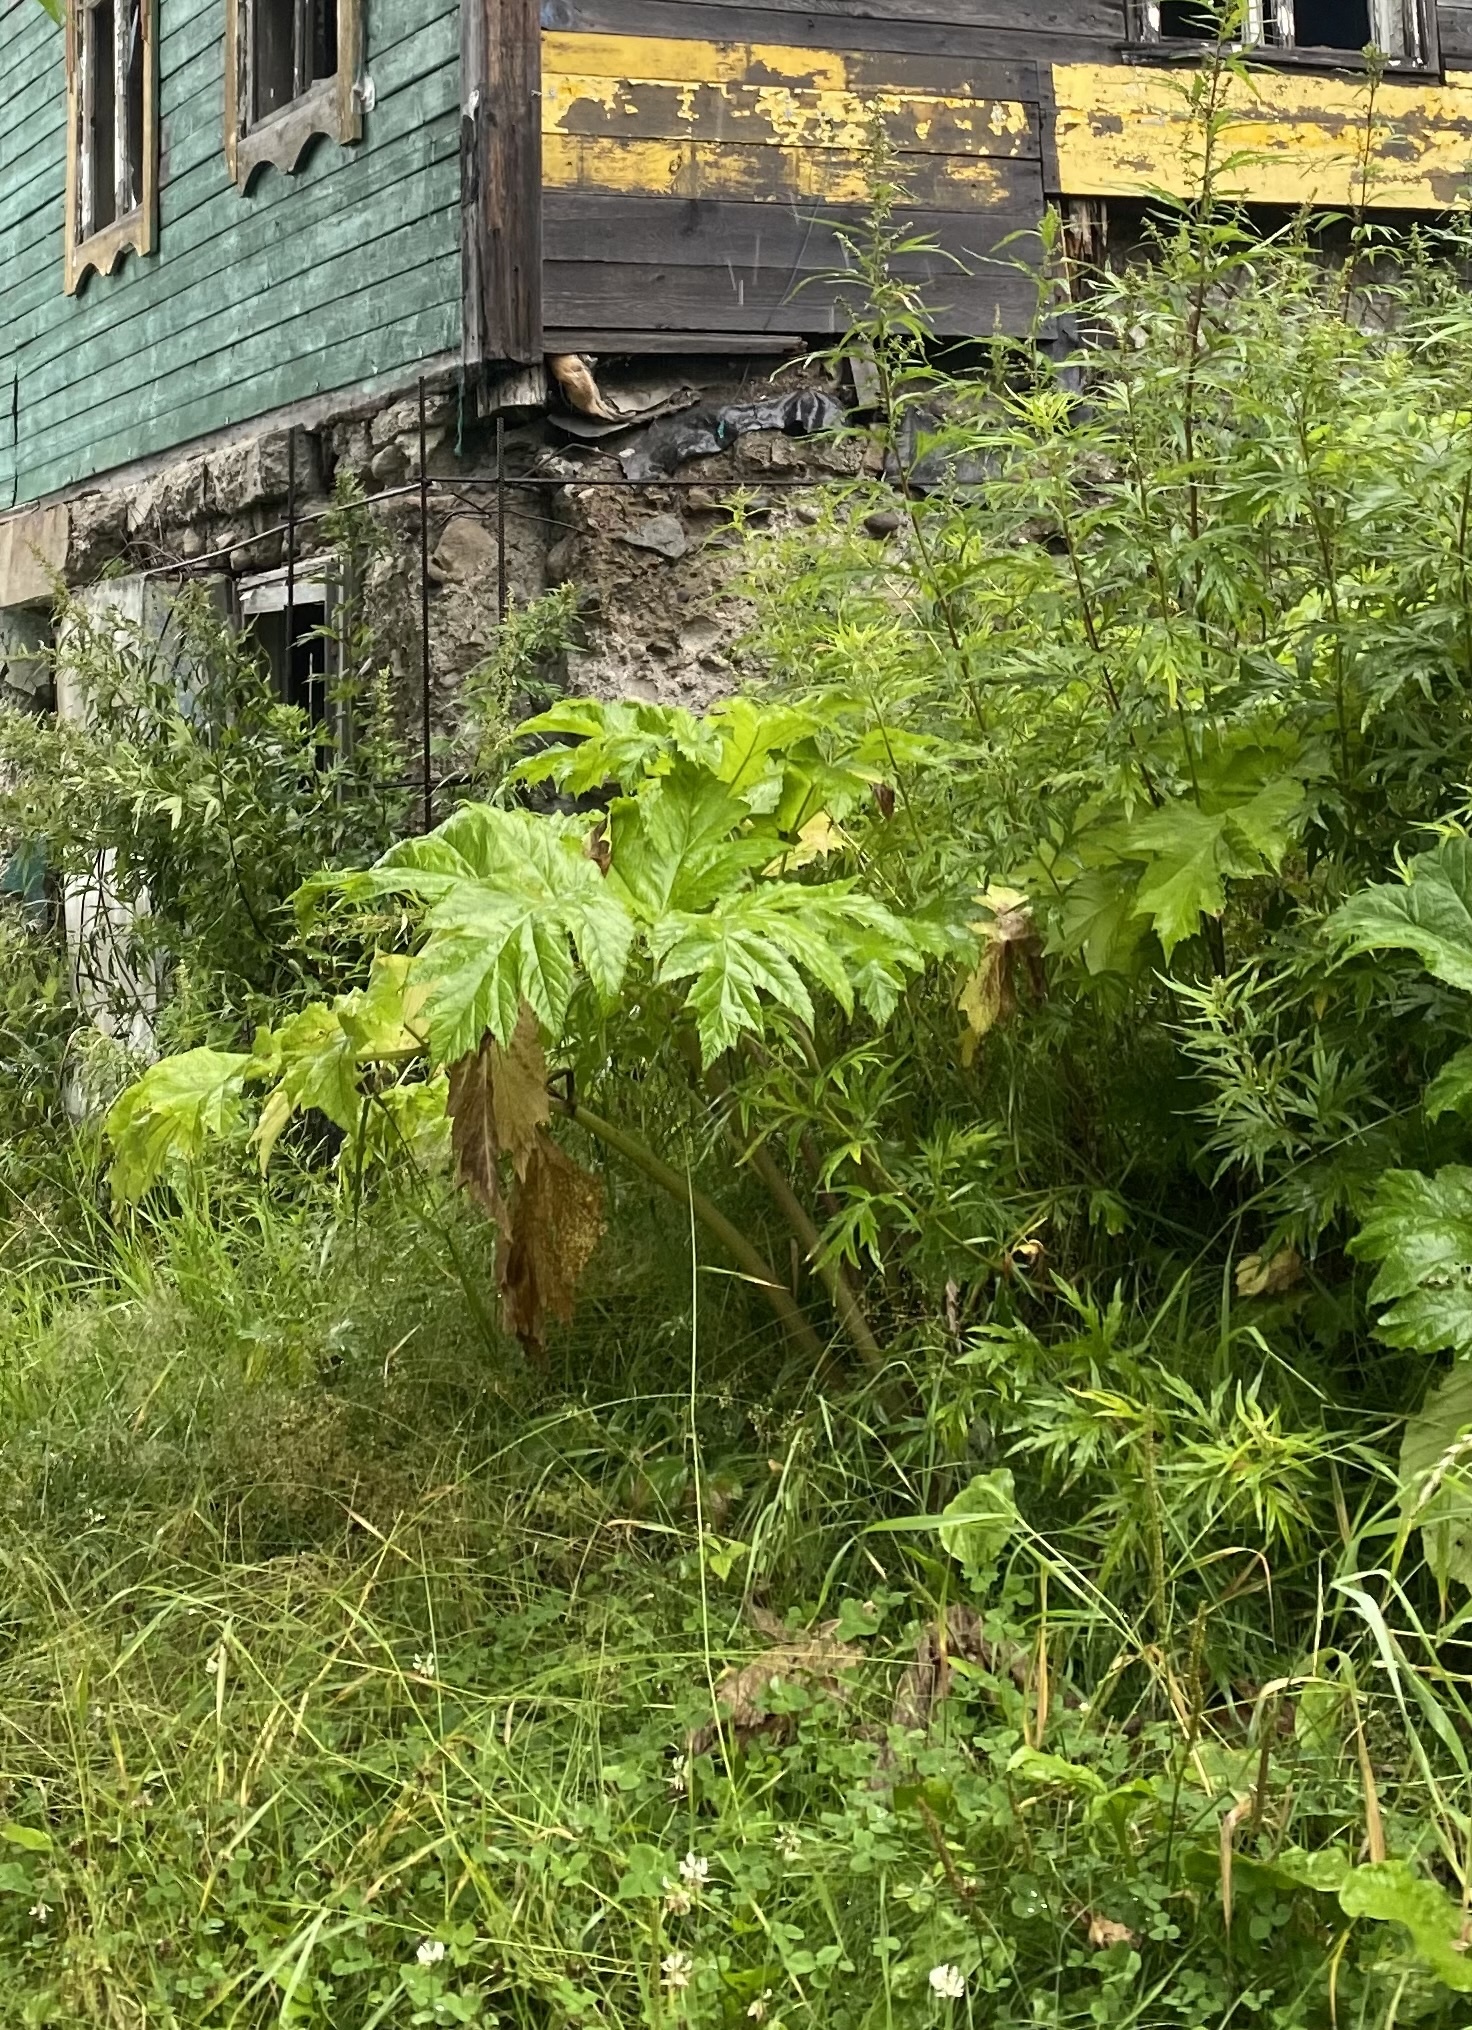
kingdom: Plantae
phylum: Tracheophyta
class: Magnoliopsida
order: Apiales
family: Apiaceae
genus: Heracleum
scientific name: Heracleum maximum
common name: American cow parsnip
